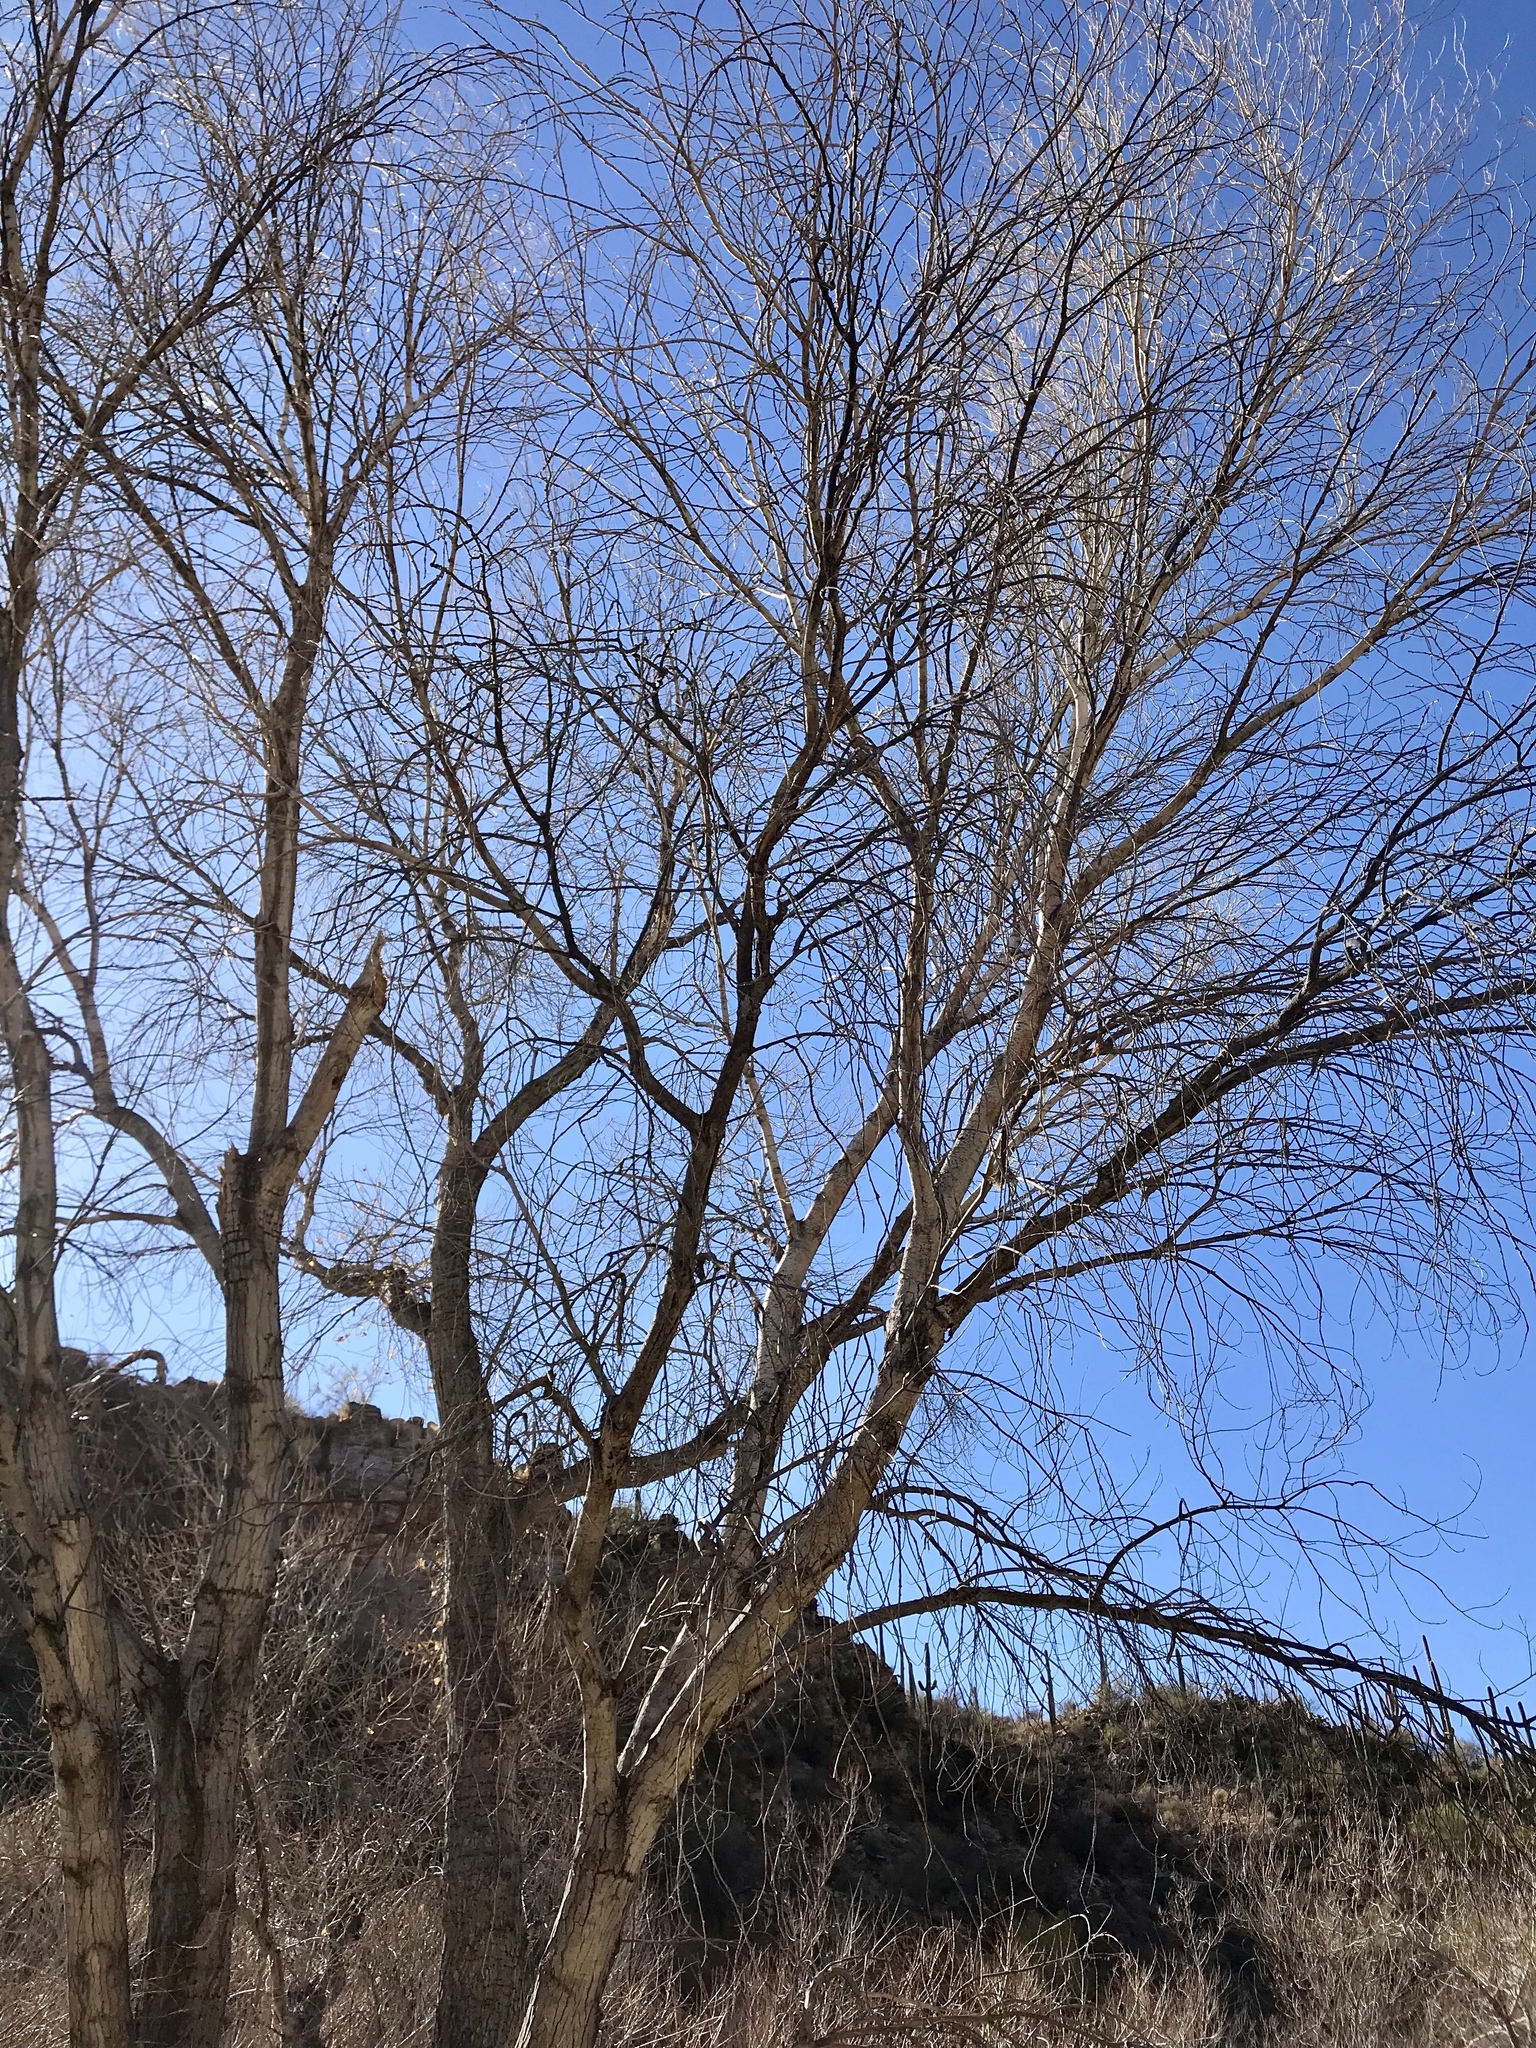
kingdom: Plantae
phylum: Tracheophyta
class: Magnoliopsida
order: Malpighiales
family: Salicaceae
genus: Populus
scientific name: Populus fremontii
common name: Fremont's cottonwood
